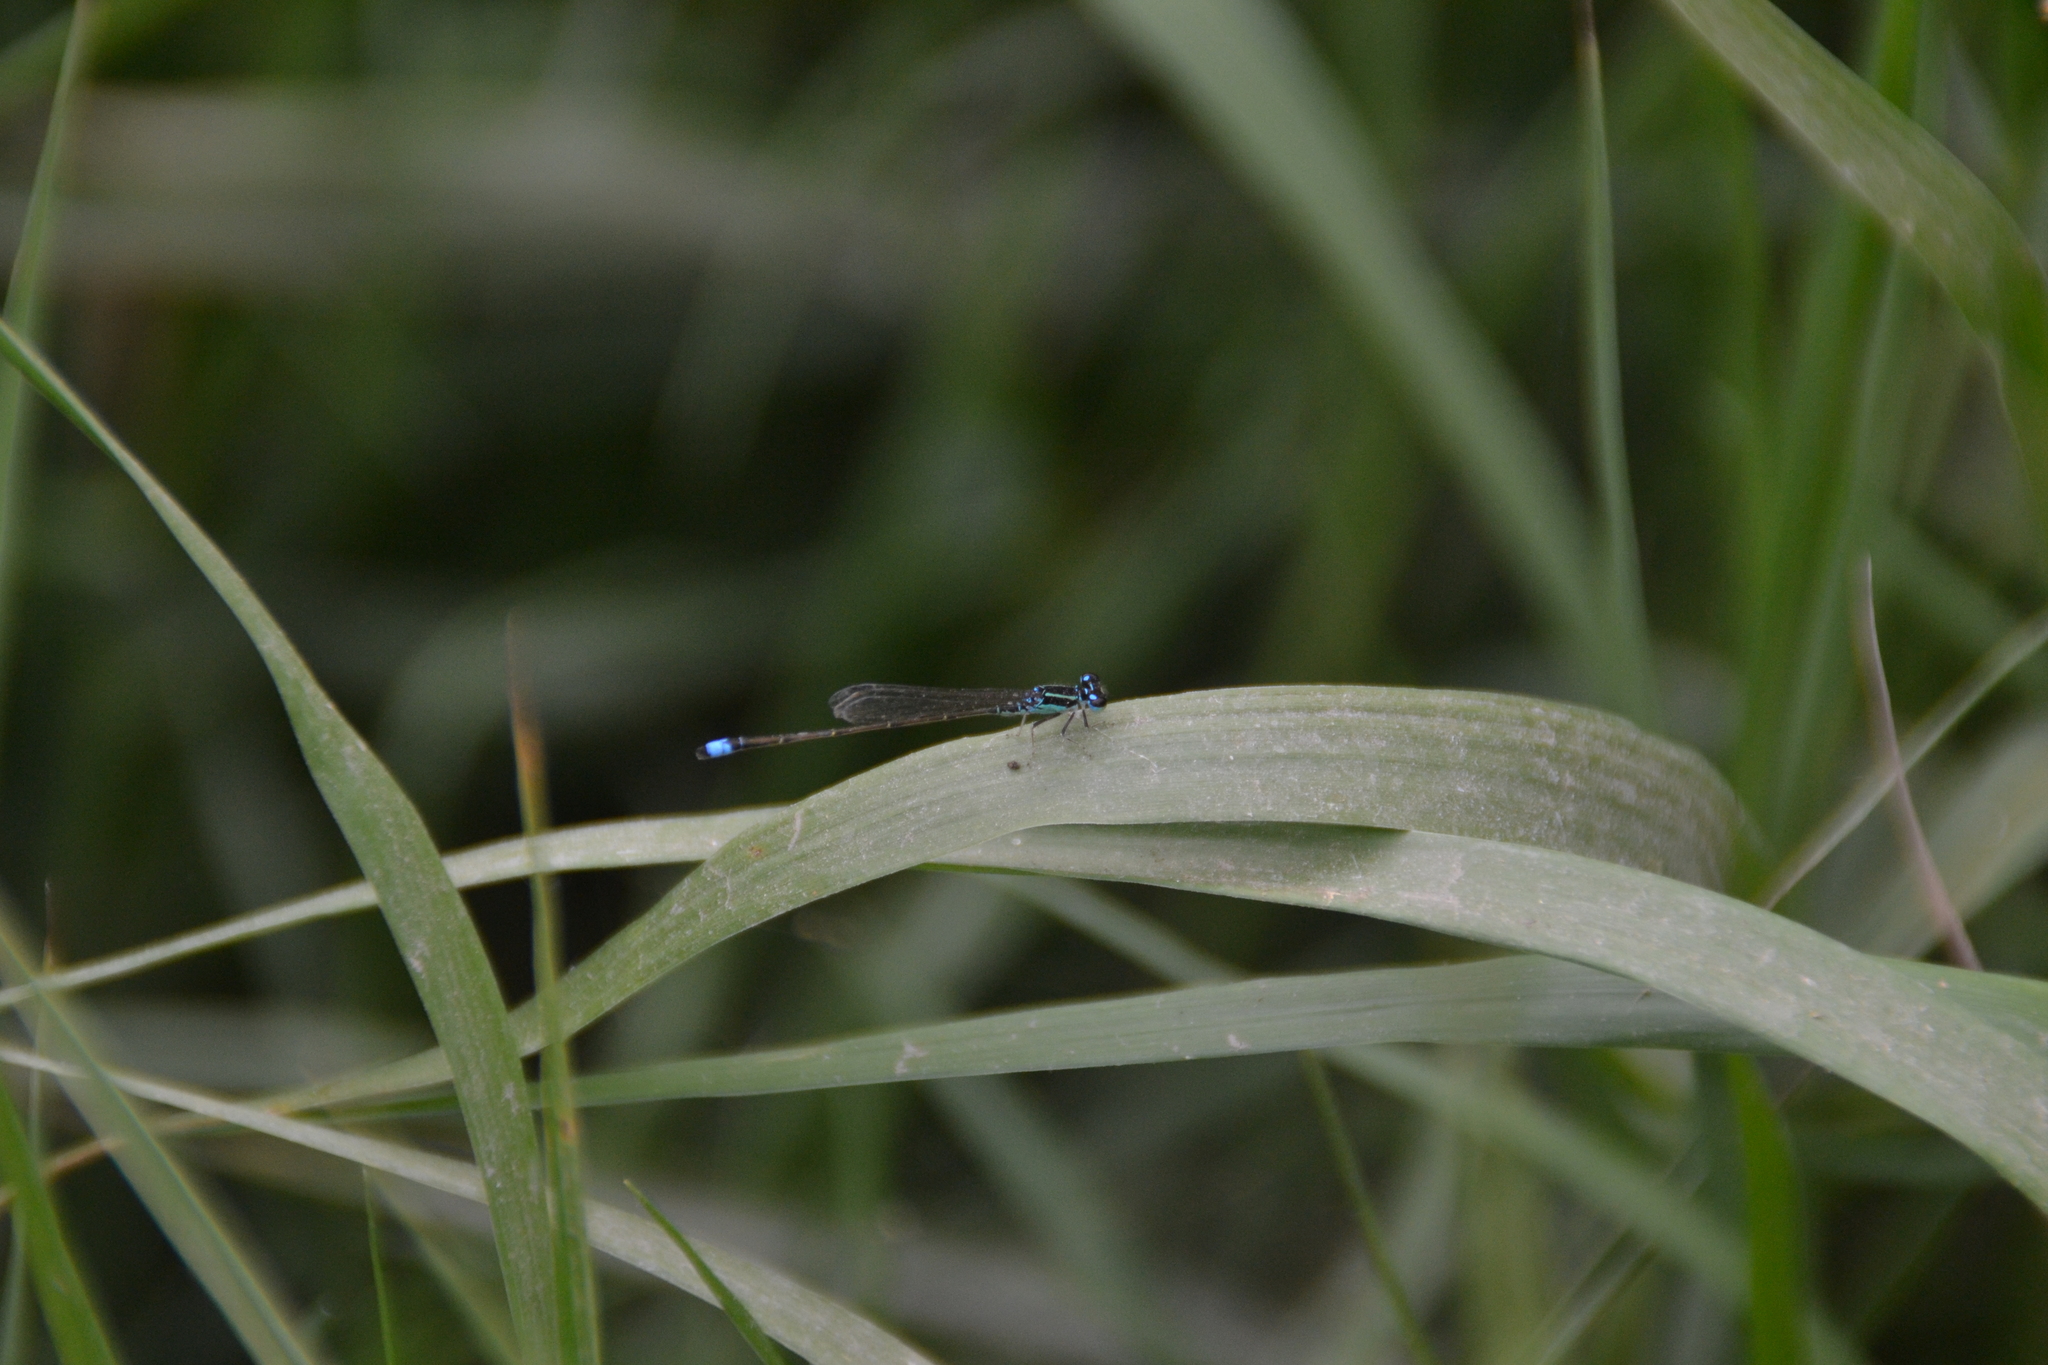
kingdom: Animalia
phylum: Arthropoda
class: Insecta
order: Odonata
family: Coenagrionidae
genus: Ischnura
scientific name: Ischnura capreolus
